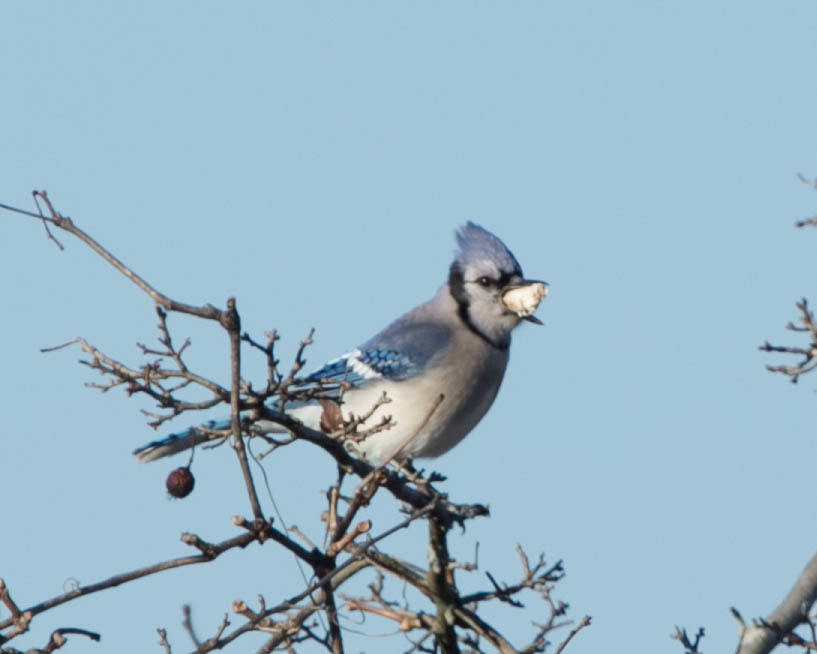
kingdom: Animalia
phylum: Chordata
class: Aves
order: Passeriformes
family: Corvidae
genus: Cyanocitta
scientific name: Cyanocitta cristata
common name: Blue jay
